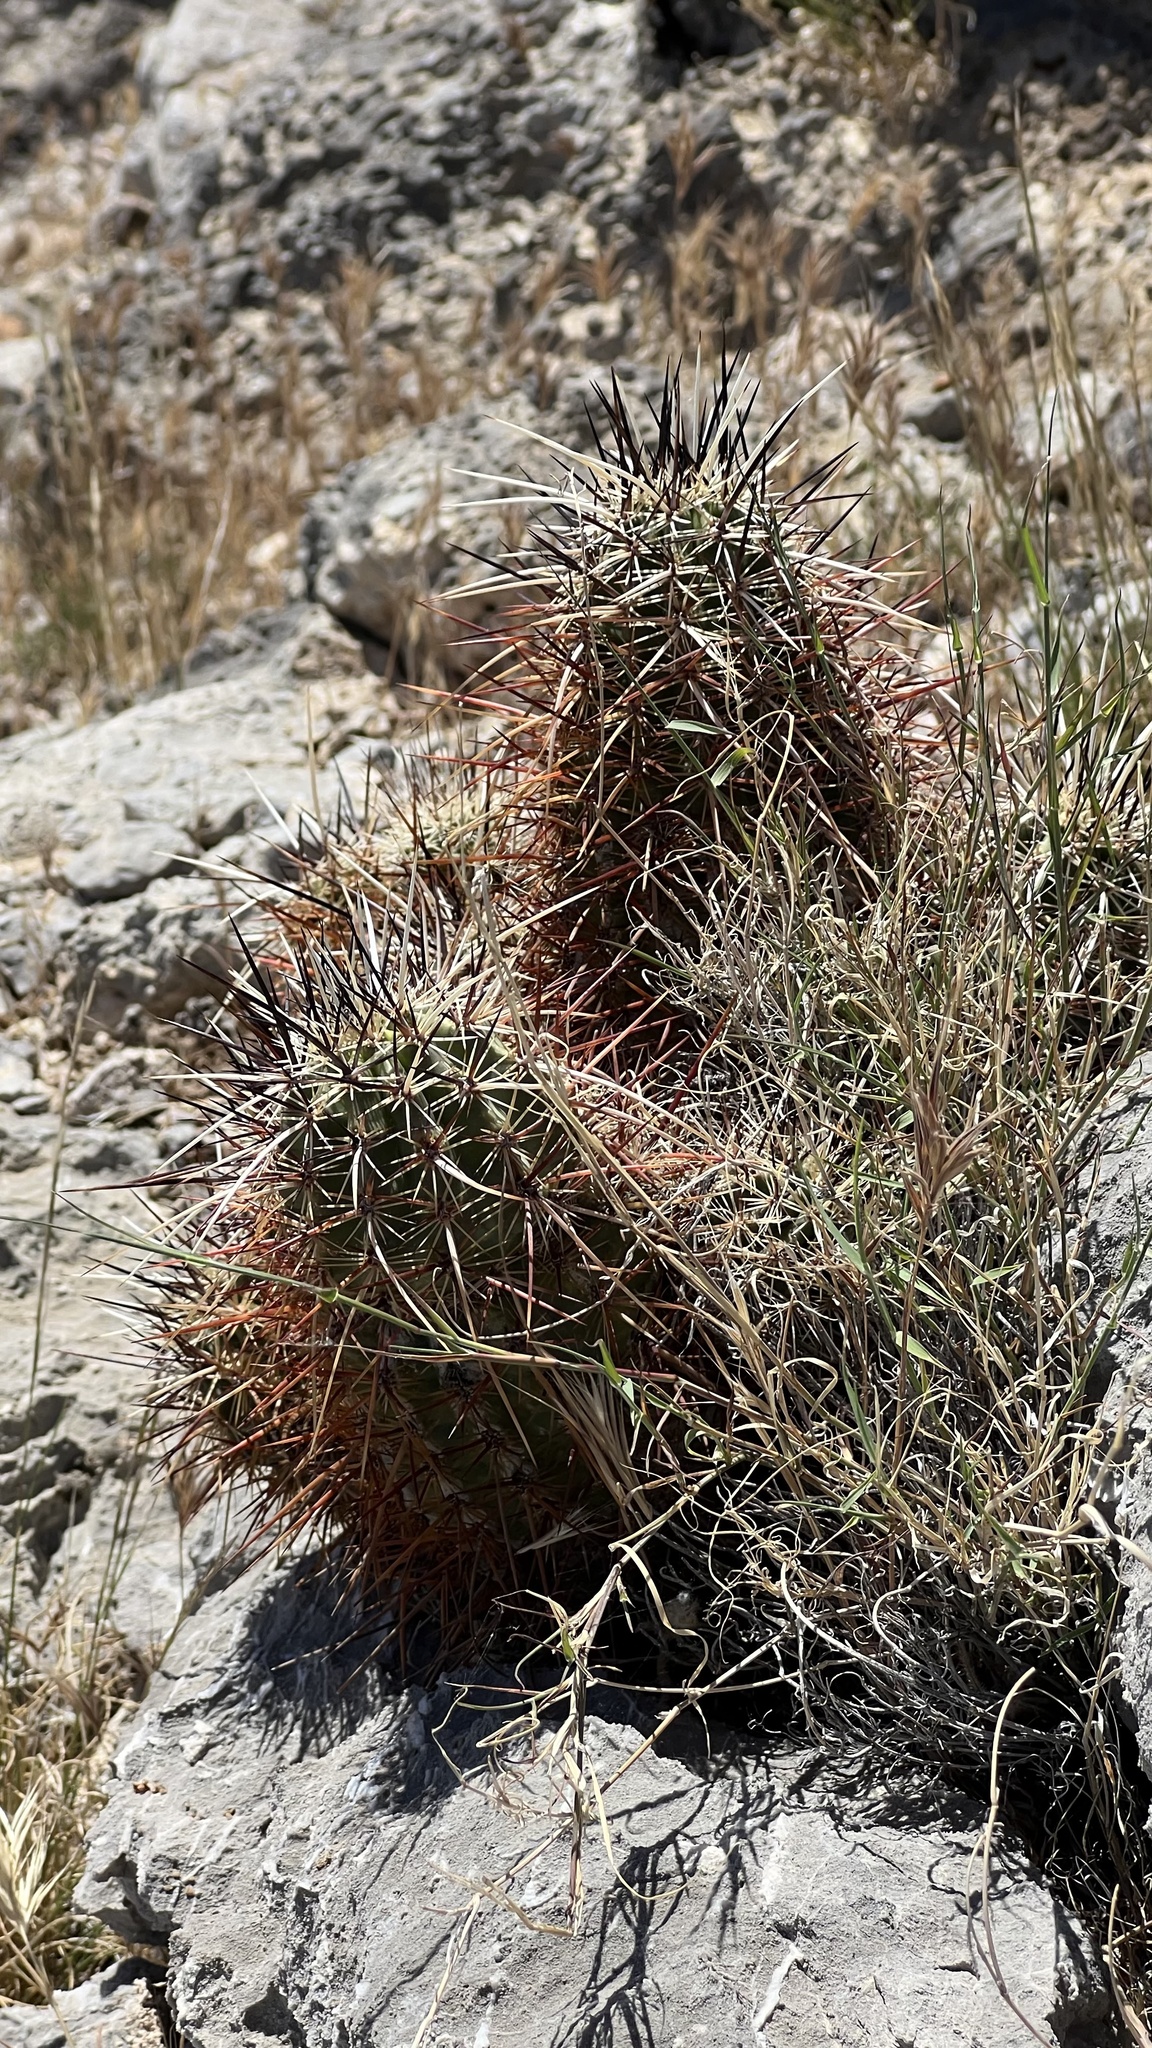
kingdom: Plantae
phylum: Tracheophyta
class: Magnoliopsida
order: Caryophyllales
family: Cactaceae
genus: Echinocereus
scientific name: Echinocereus engelmannii
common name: Engelmann's hedgehog cactus
